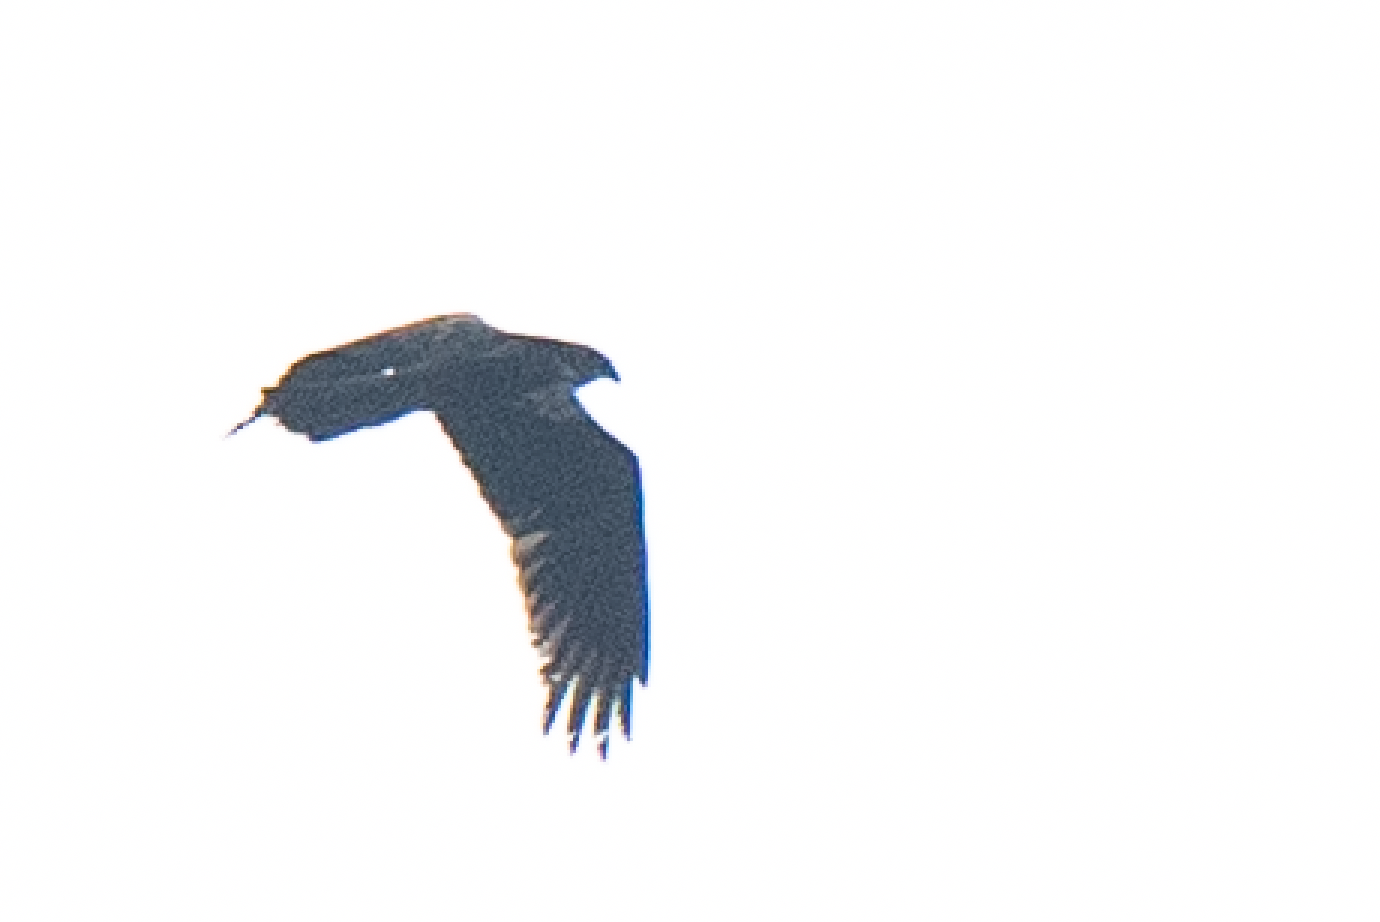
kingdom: Animalia
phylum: Chordata
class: Aves
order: Accipitriformes
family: Accipitridae
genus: Circus
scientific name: Circus aeruginosus
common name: Western marsh harrier
